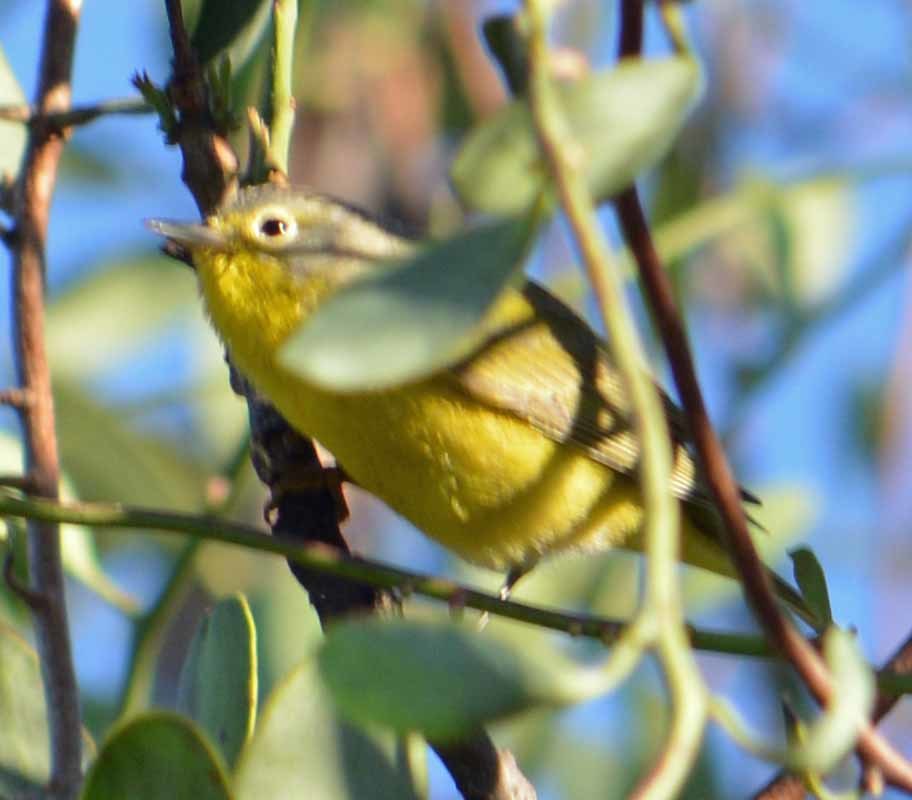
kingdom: Animalia
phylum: Chordata
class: Aves
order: Passeriformes
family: Parulidae
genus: Leiothlypis
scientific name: Leiothlypis ruficapilla
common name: Nashville warbler
